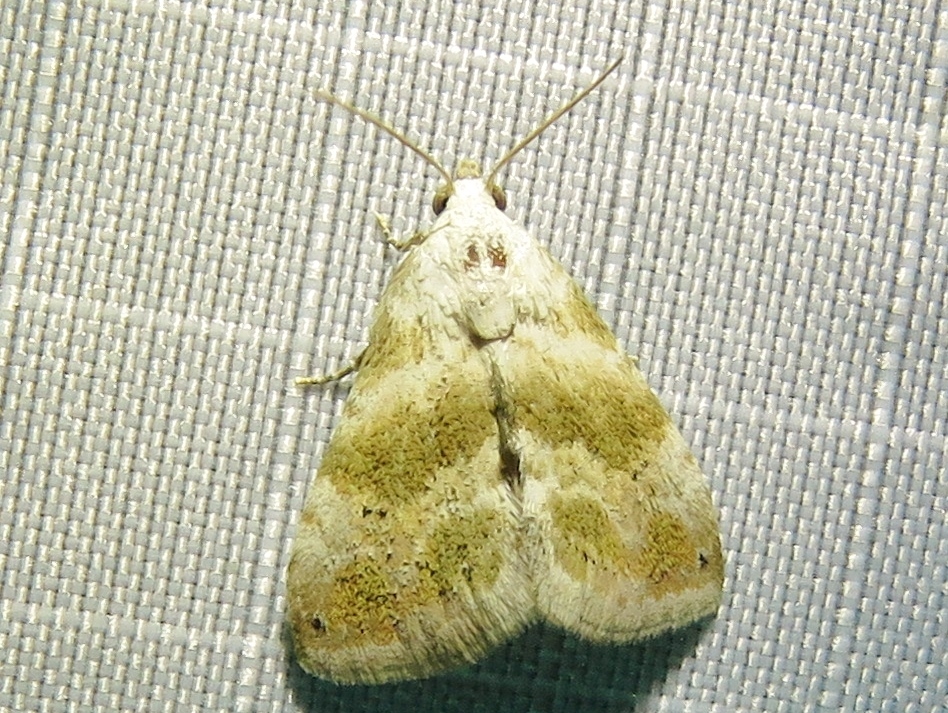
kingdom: Animalia
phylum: Arthropoda
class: Insecta
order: Lepidoptera
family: Noctuidae
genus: Eublemma
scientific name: Eublemma minima
